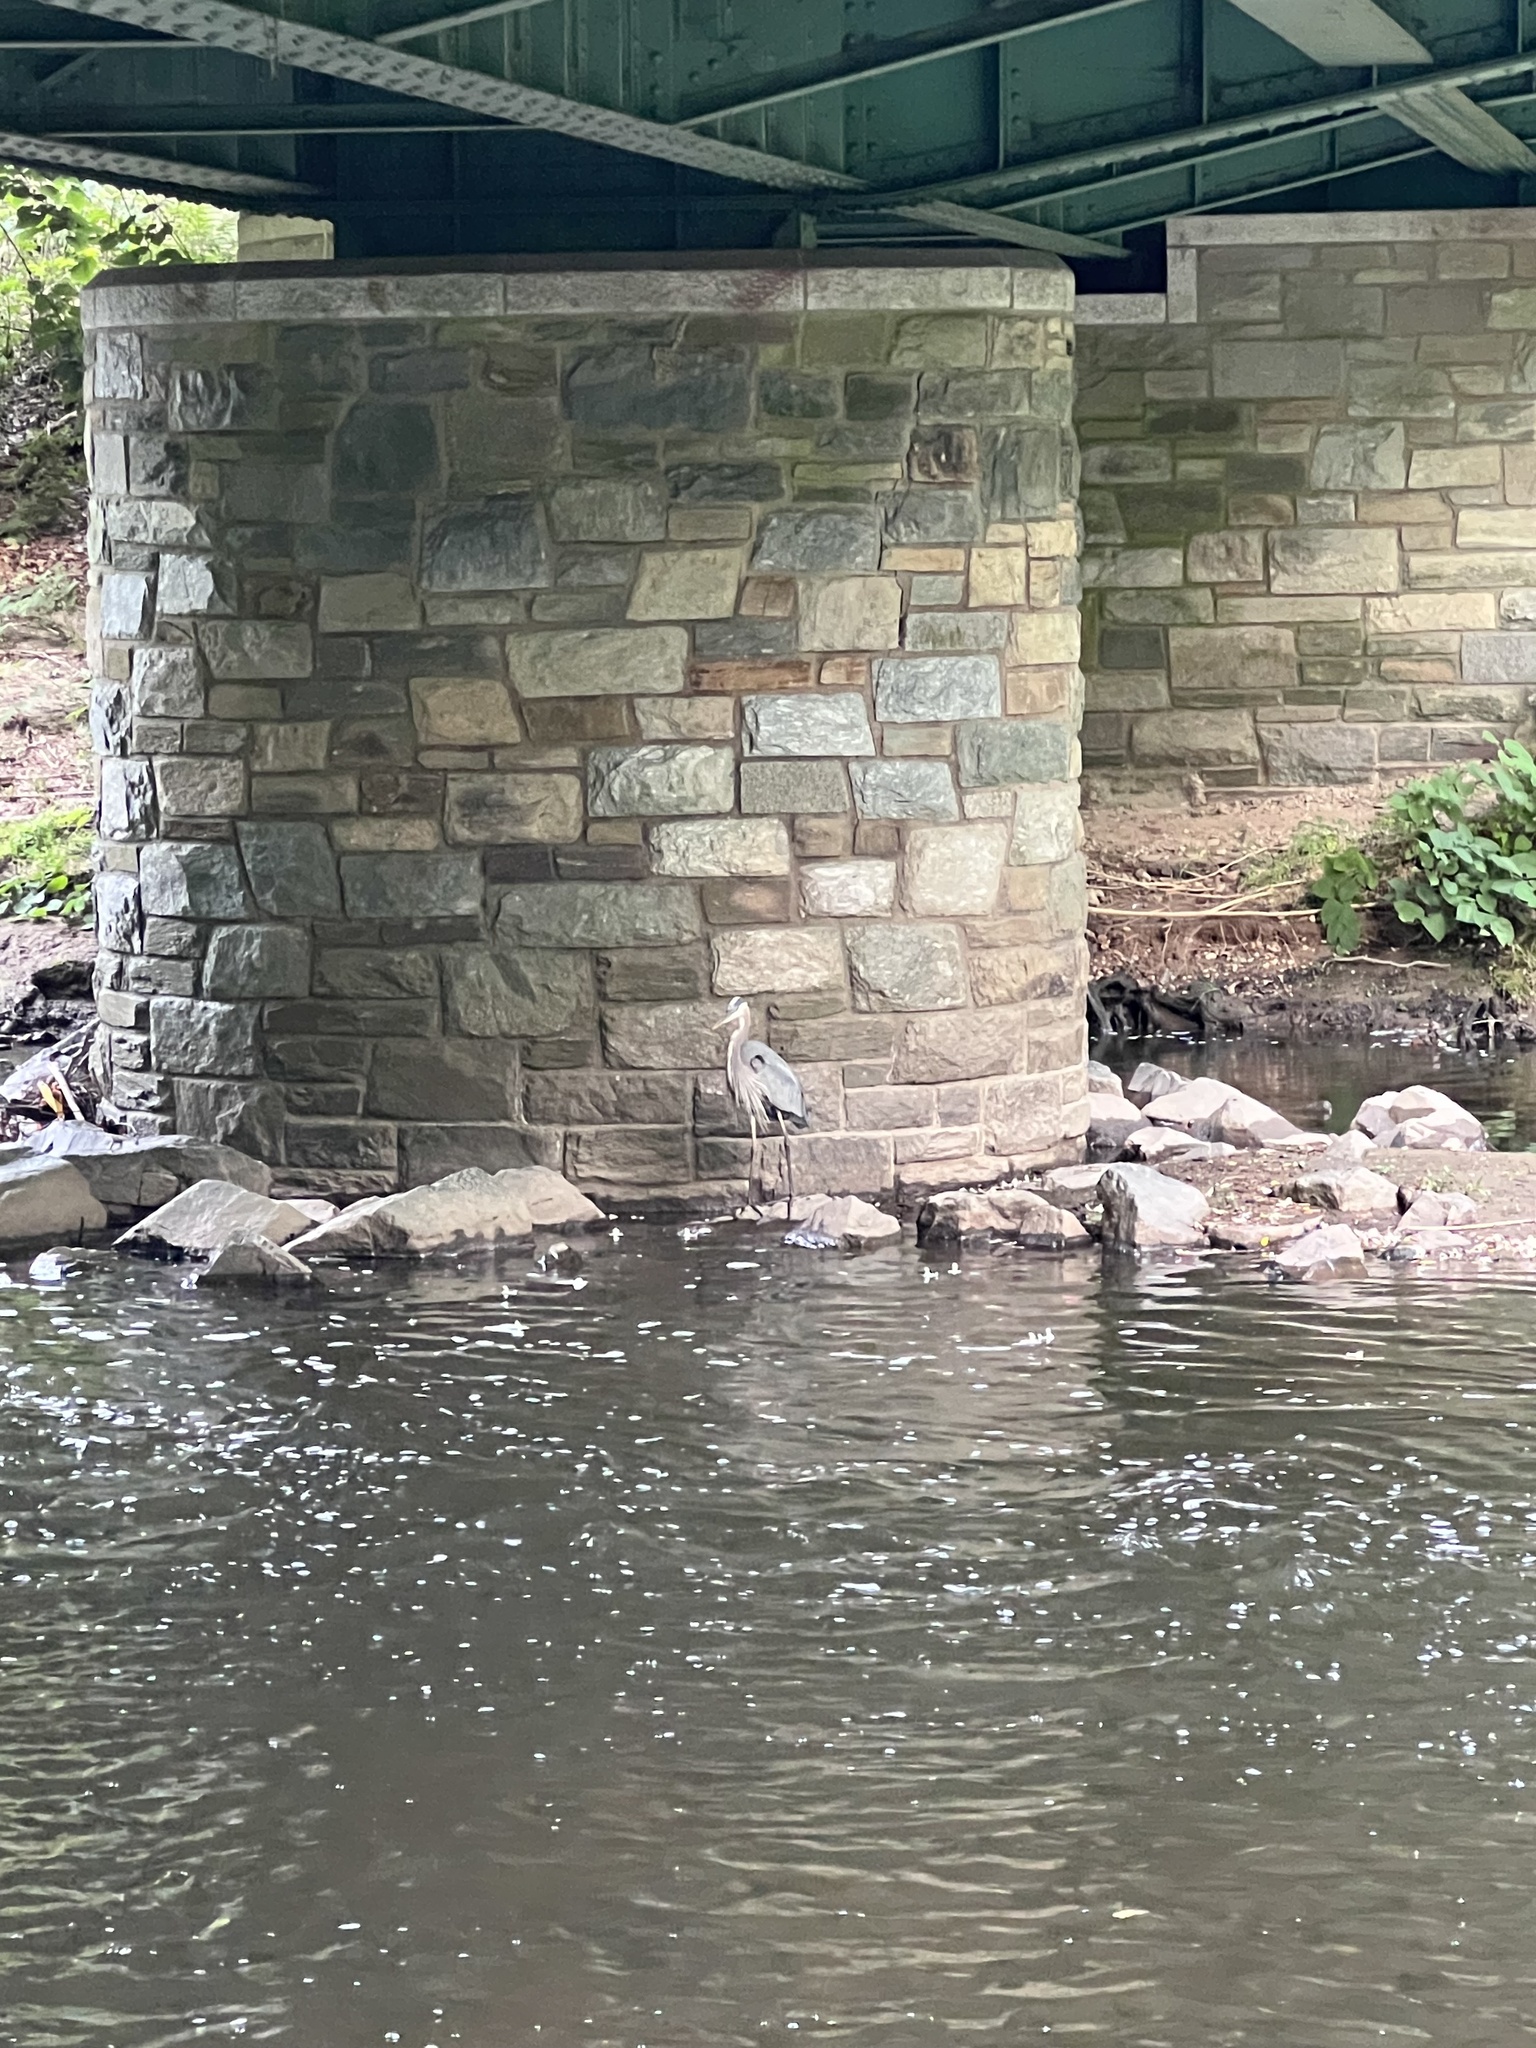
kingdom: Animalia
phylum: Chordata
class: Aves
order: Pelecaniformes
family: Ardeidae
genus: Ardea
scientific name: Ardea herodias
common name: Great blue heron
